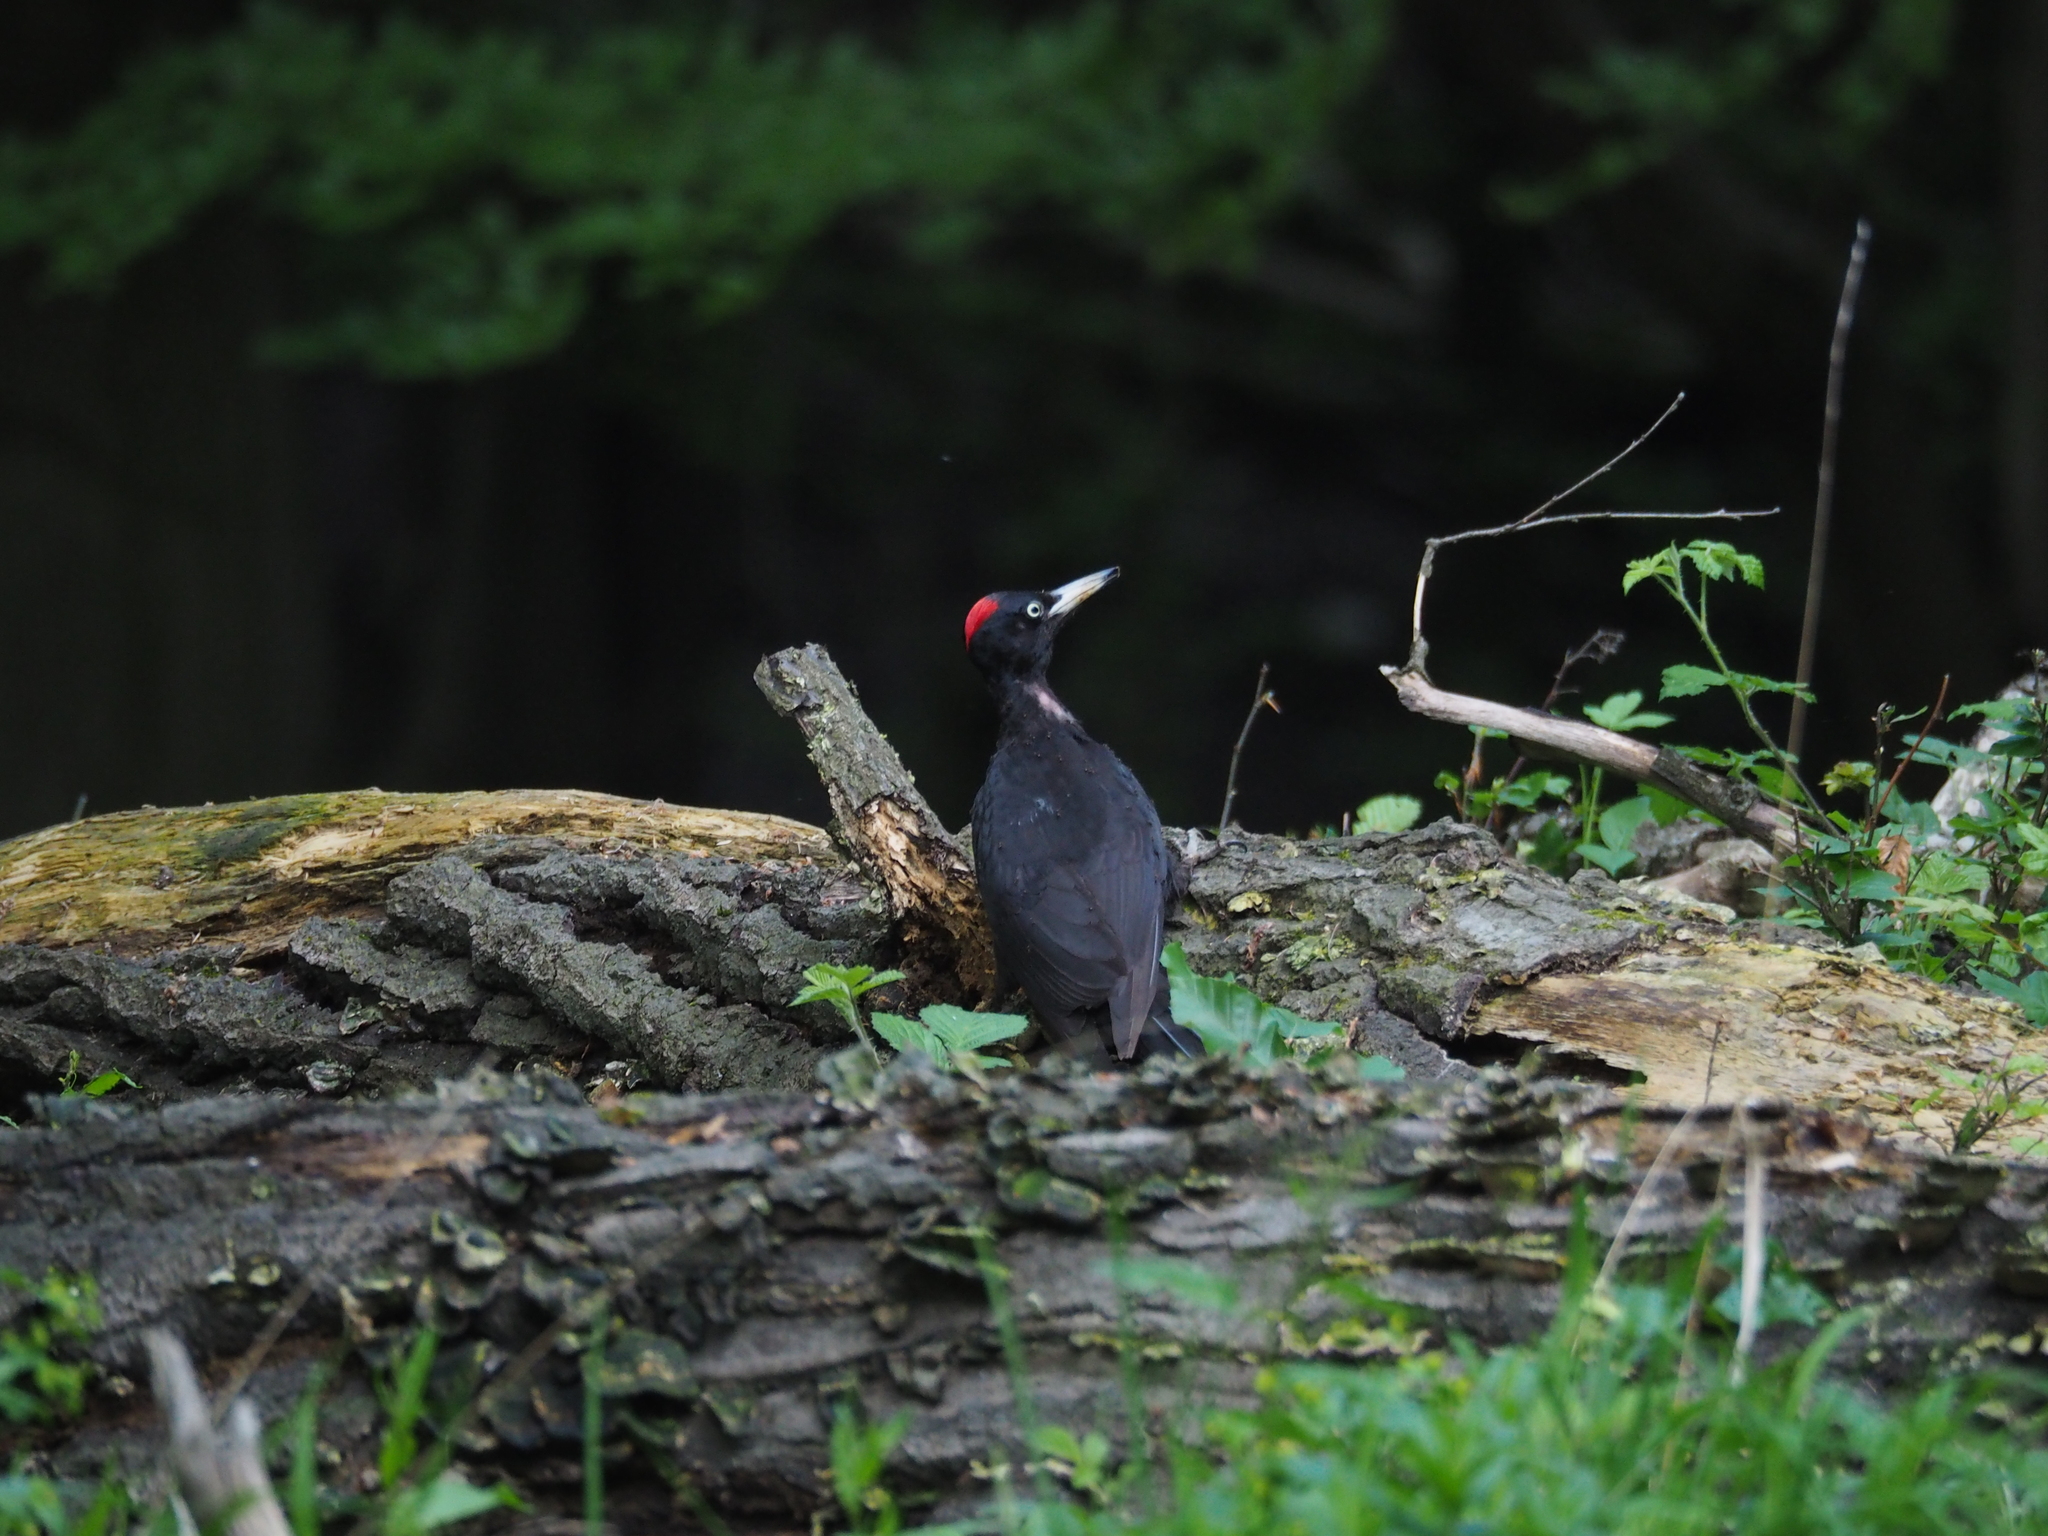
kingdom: Animalia
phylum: Chordata
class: Aves
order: Piciformes
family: Picidae
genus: Dryocopus
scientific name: Dryocopus martius
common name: Black woodpecker
